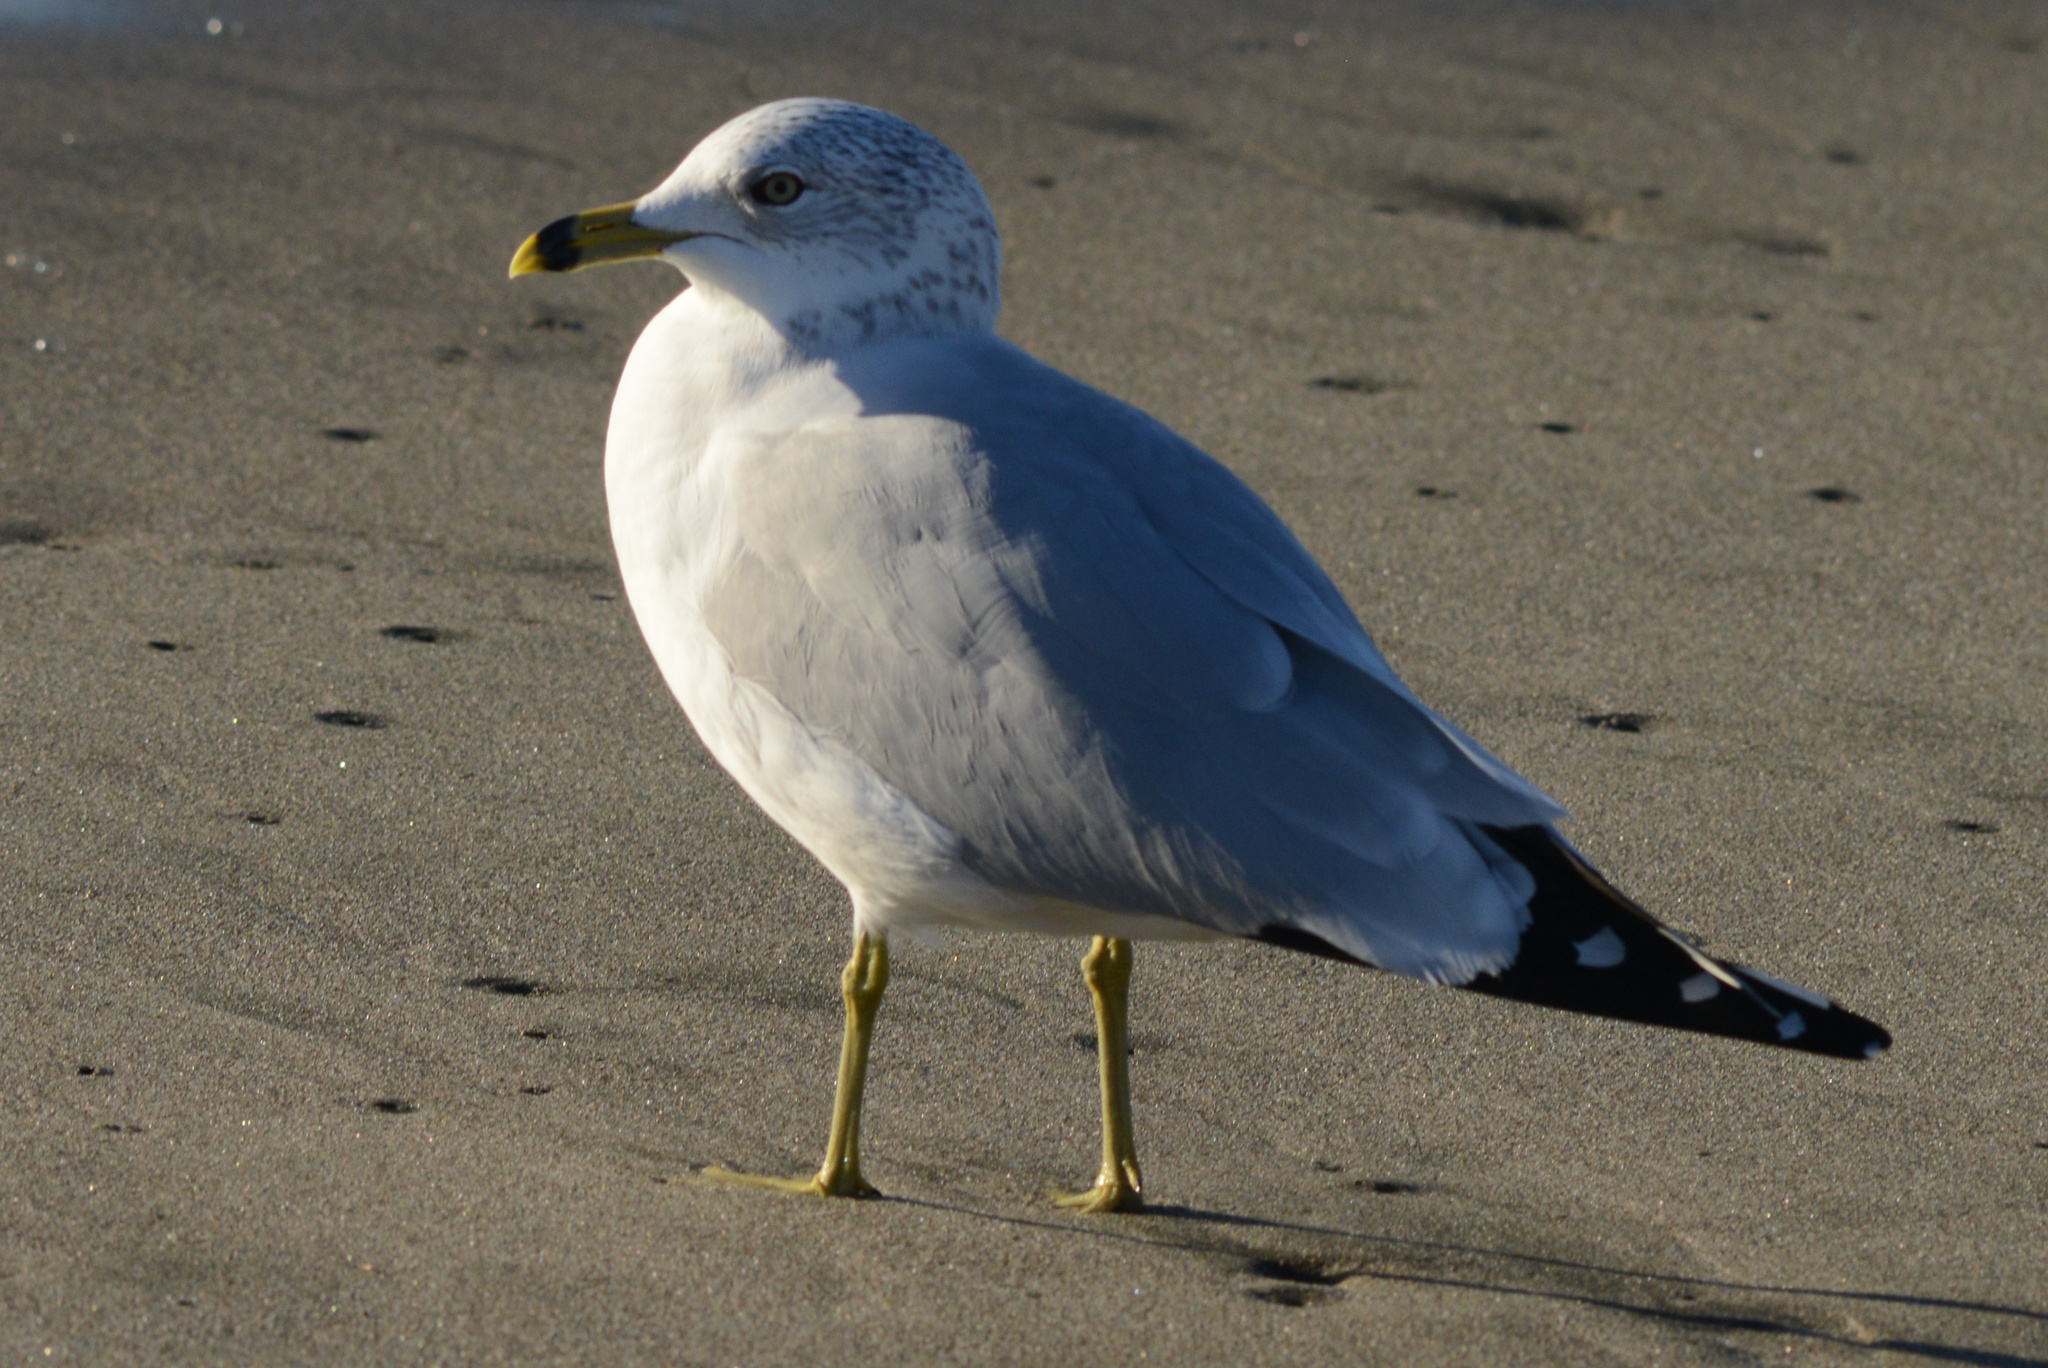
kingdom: Animalia
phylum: Chordata
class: Aves
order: Charadriiformes
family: Laridae
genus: Larus
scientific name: Larus delawarensis
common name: Ring-billed gull
